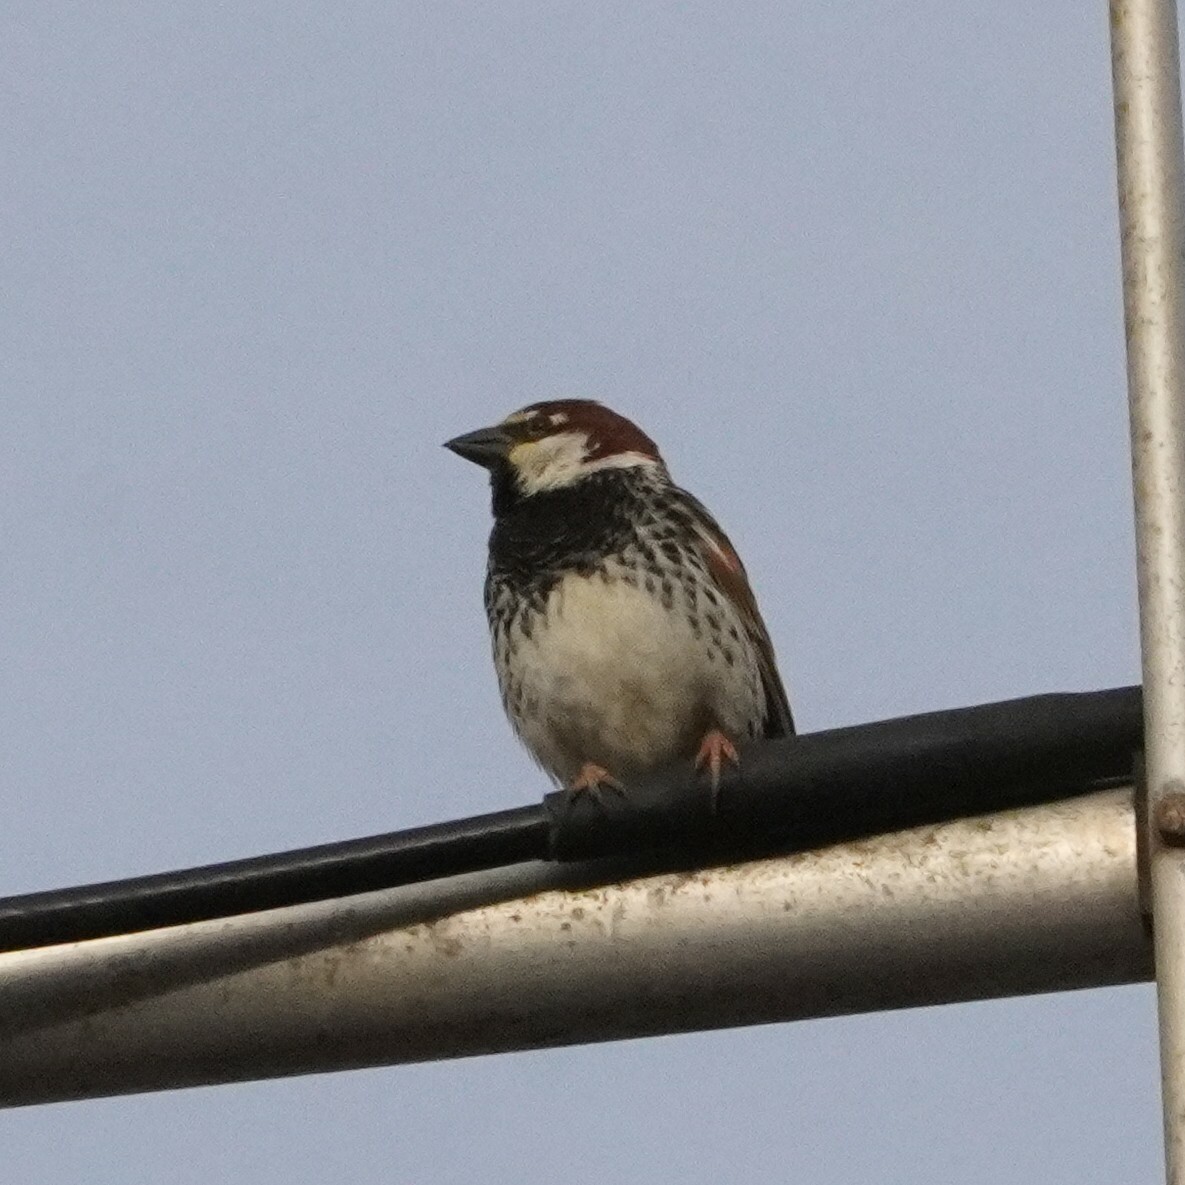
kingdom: Animalia
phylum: Chordata
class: Aves
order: Passeriformes
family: Passeridae
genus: Passer
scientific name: Passer hispaniolensis
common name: Spanish sparrow
